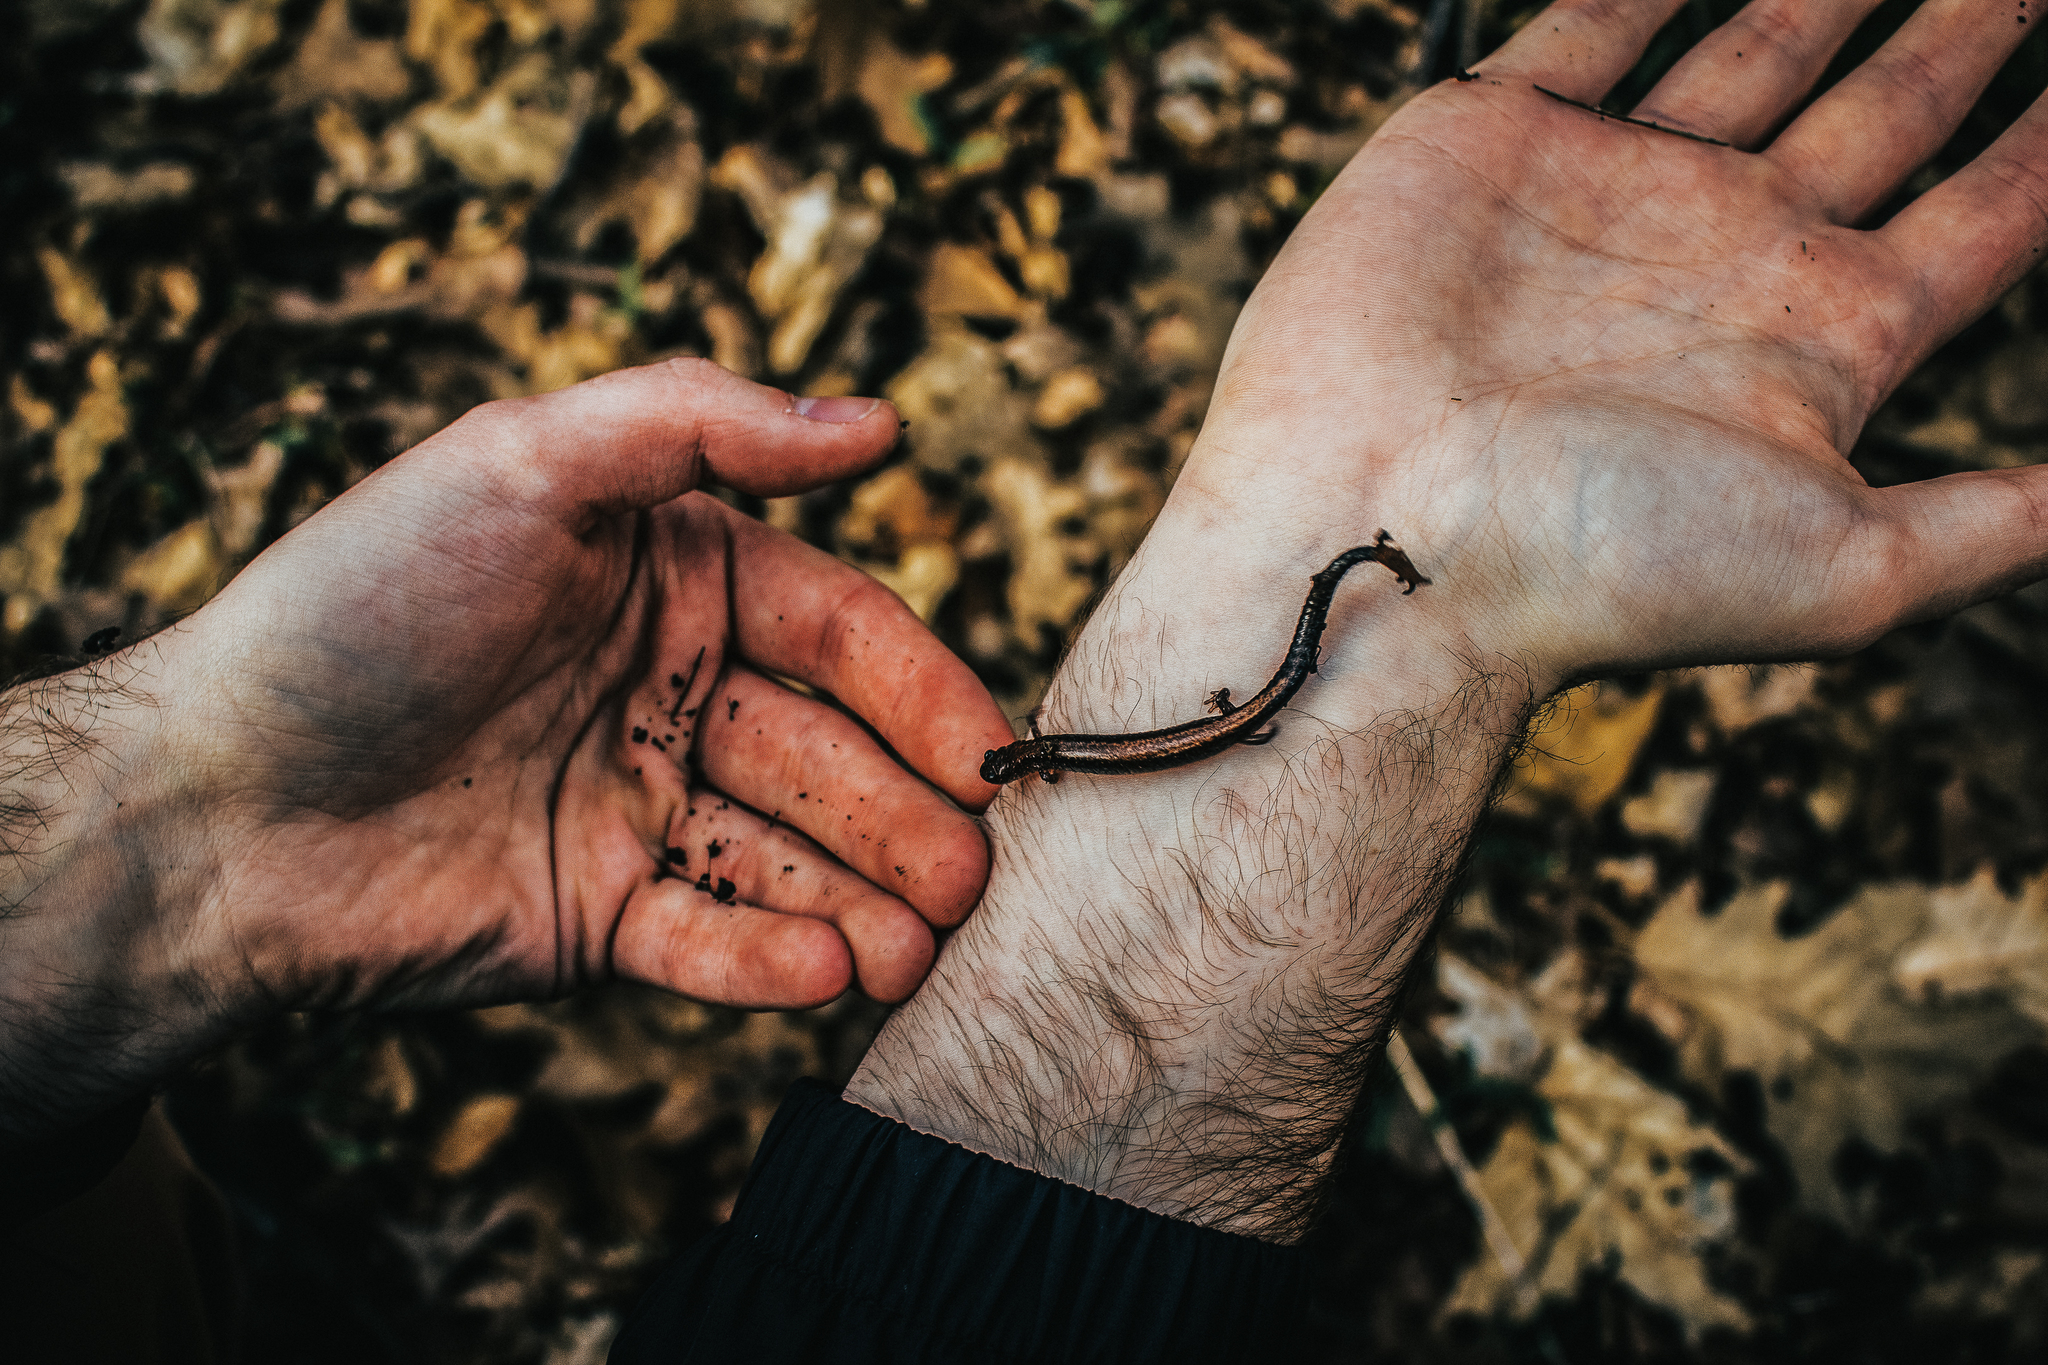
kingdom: Animalia
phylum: Chordata
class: Amphibia
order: Caudata
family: Plethodontidae
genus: Plethodon
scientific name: Plethodon cinereus
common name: Redback salamander
